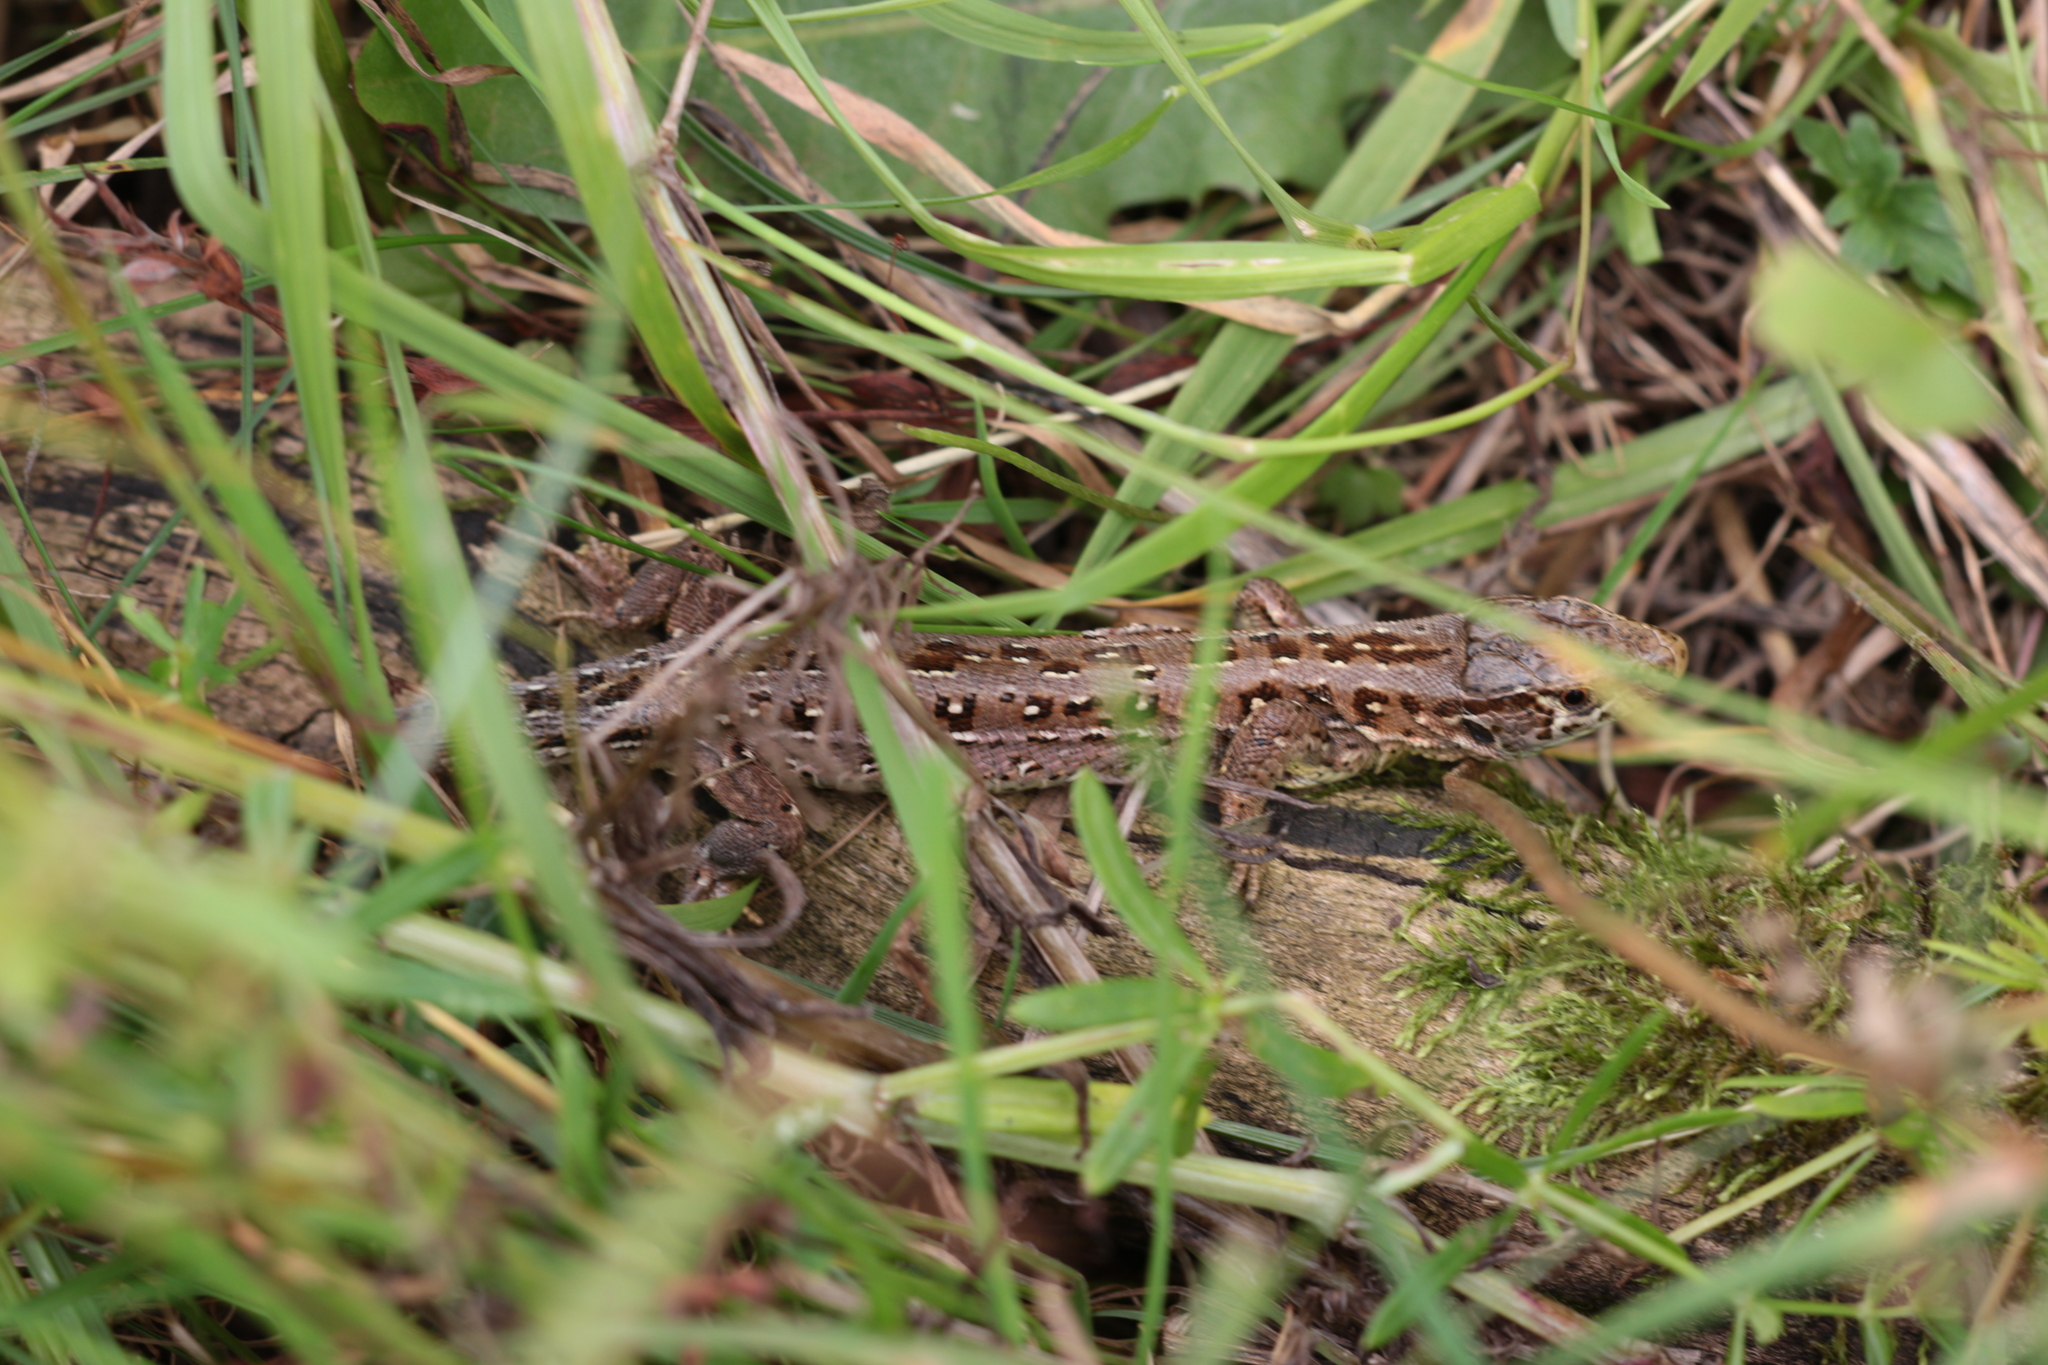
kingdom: Animalia
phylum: Chordata
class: Squamata
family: Lacertidae
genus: Lacerta
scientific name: Lacerta agilis
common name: Sand lizard
